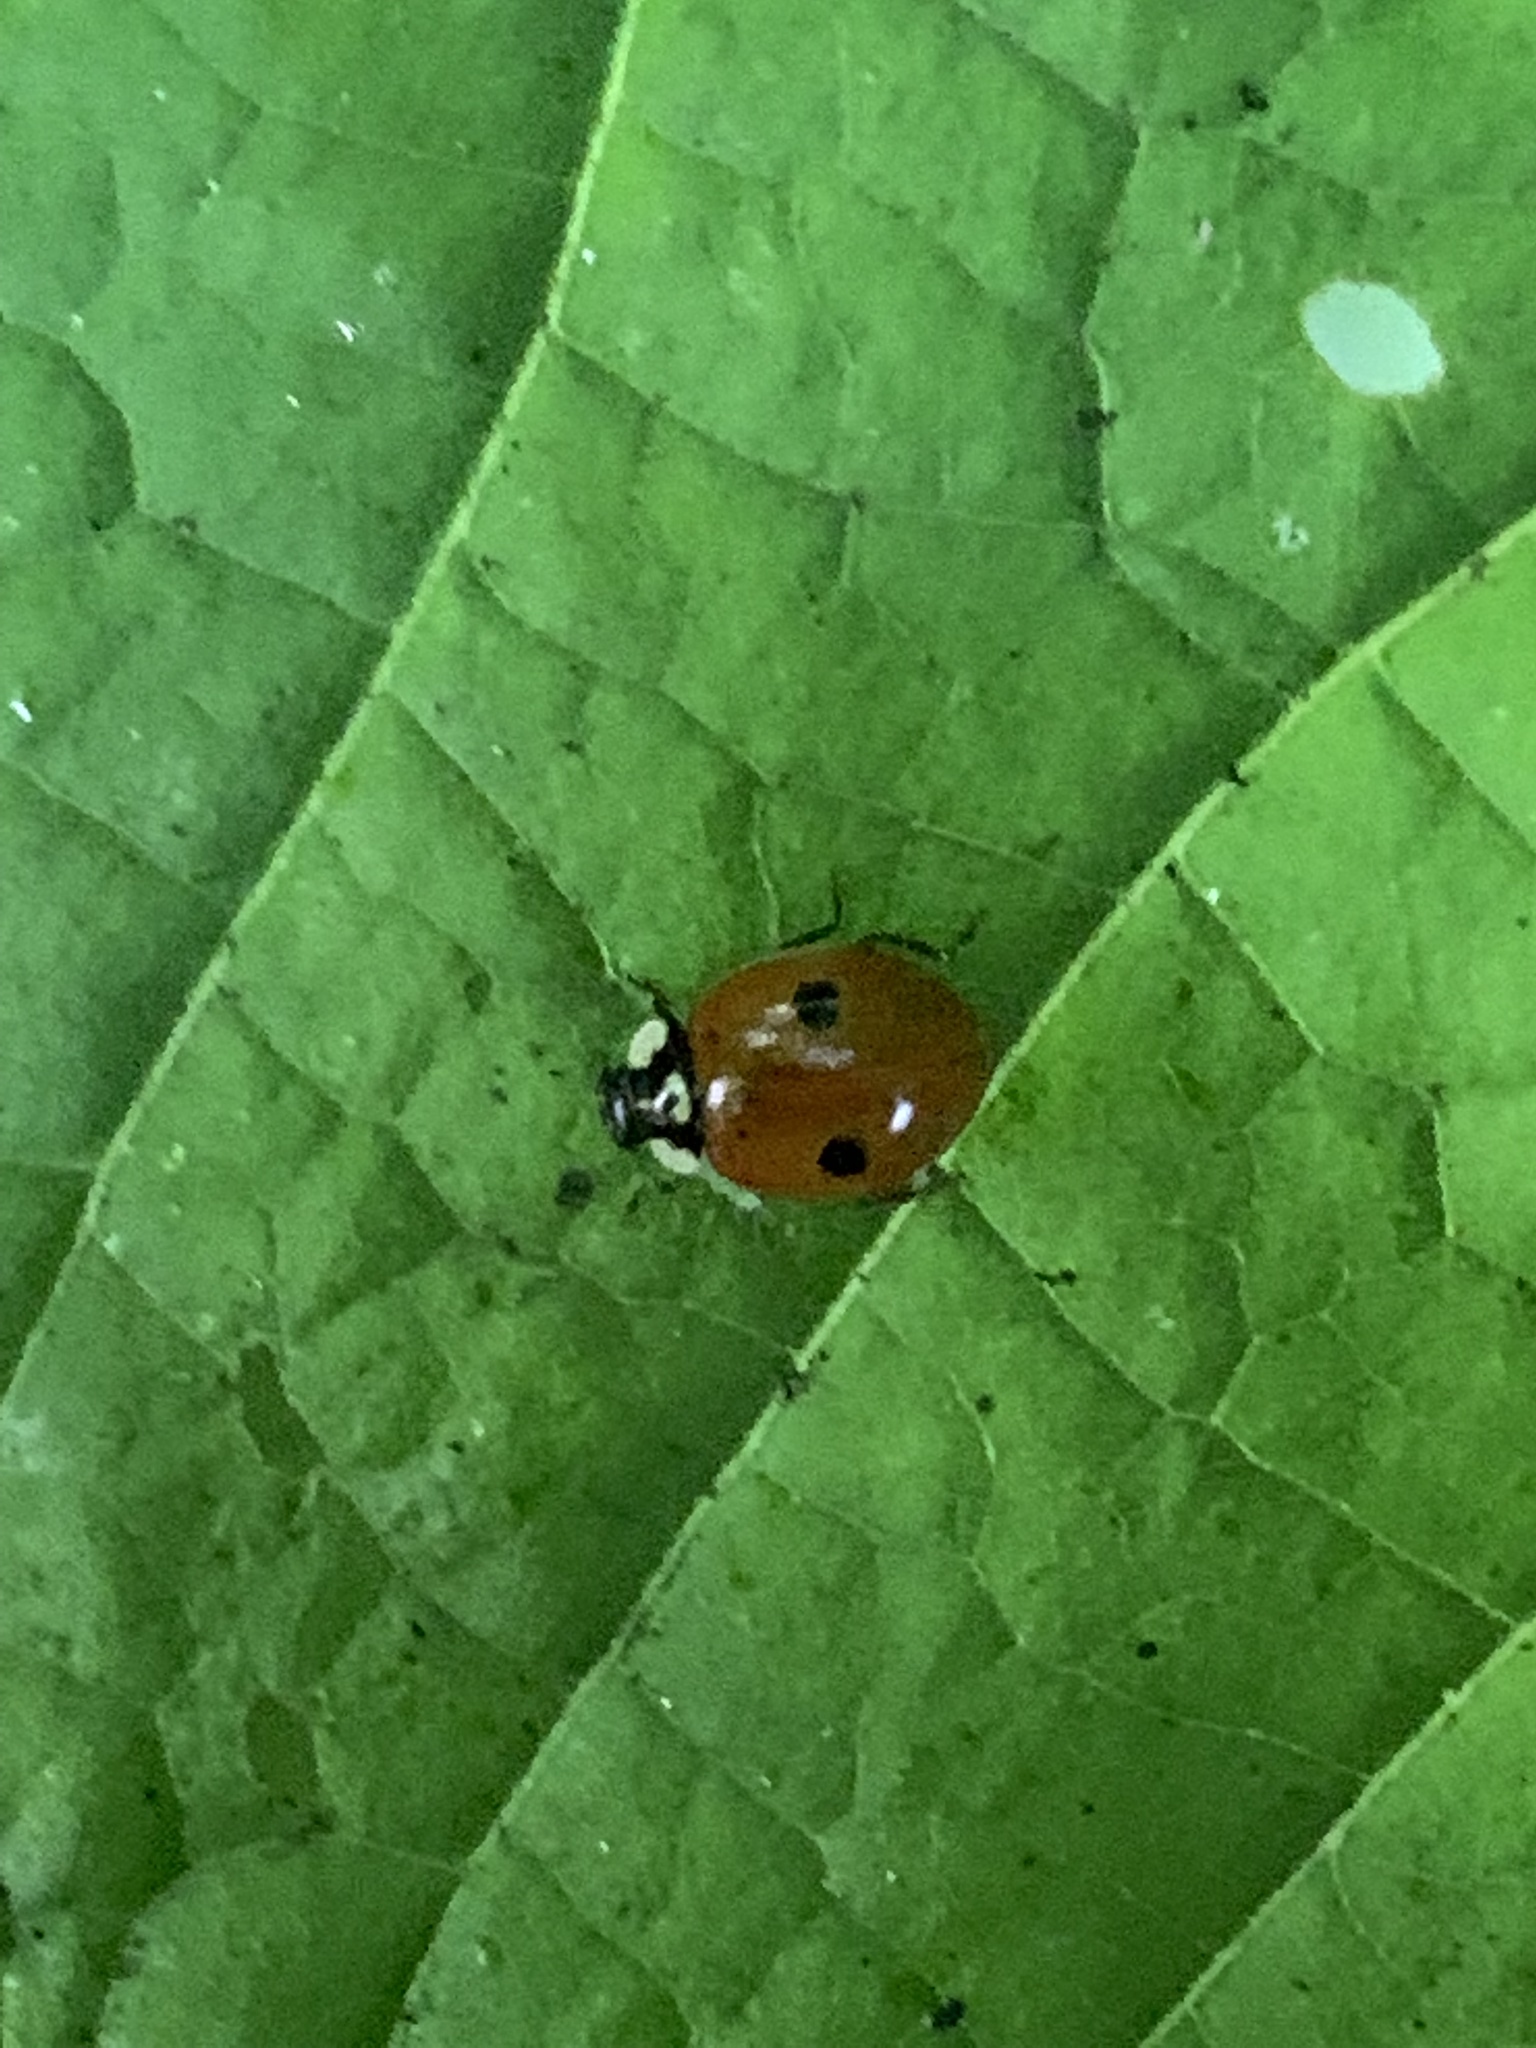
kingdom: Animalia
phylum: Arthropoda
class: Insecta
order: Coleoptera
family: Coccinellidae
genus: Adalia
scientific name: Adalia bipunctata
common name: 2-spot ladybird
